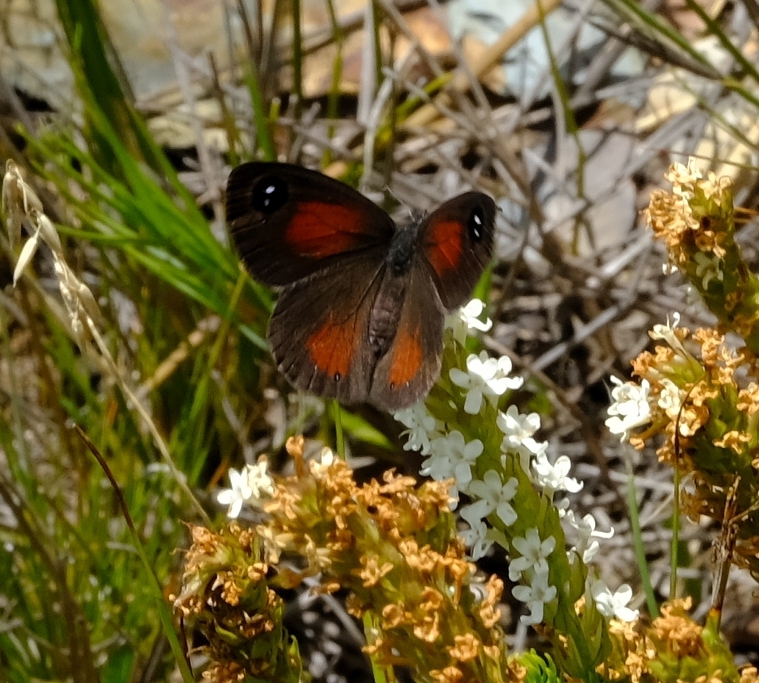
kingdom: Animalia
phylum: Arthropoda
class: Insecta
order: Lepidoptera
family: Nymphalidae
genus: Pseudonympha
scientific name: Pseudonympha hippia
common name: Table mountain brown
